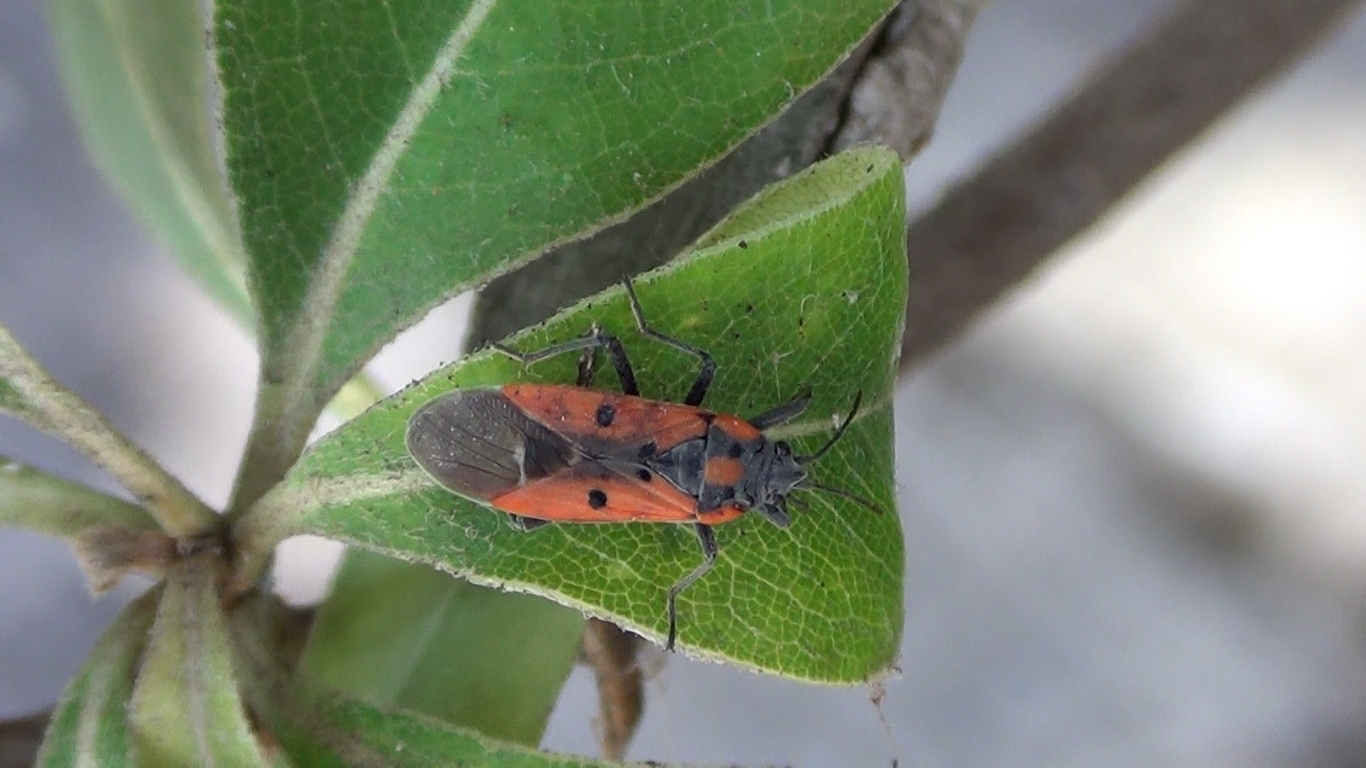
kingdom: Animalia
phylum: Arthropoda
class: Insecta
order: Hemiptera
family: Lygaeidae
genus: Lygaeus
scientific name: Lygaeus creticus
